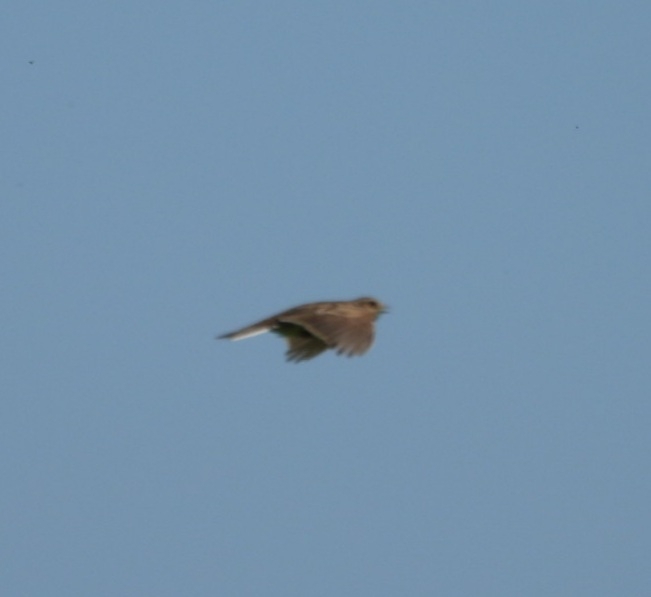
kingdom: Animalia
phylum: Chordata
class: Aves
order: Passeriformes
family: Alaudidae
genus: Alauda
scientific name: Alauda arvensis
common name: Eurasian skylark
